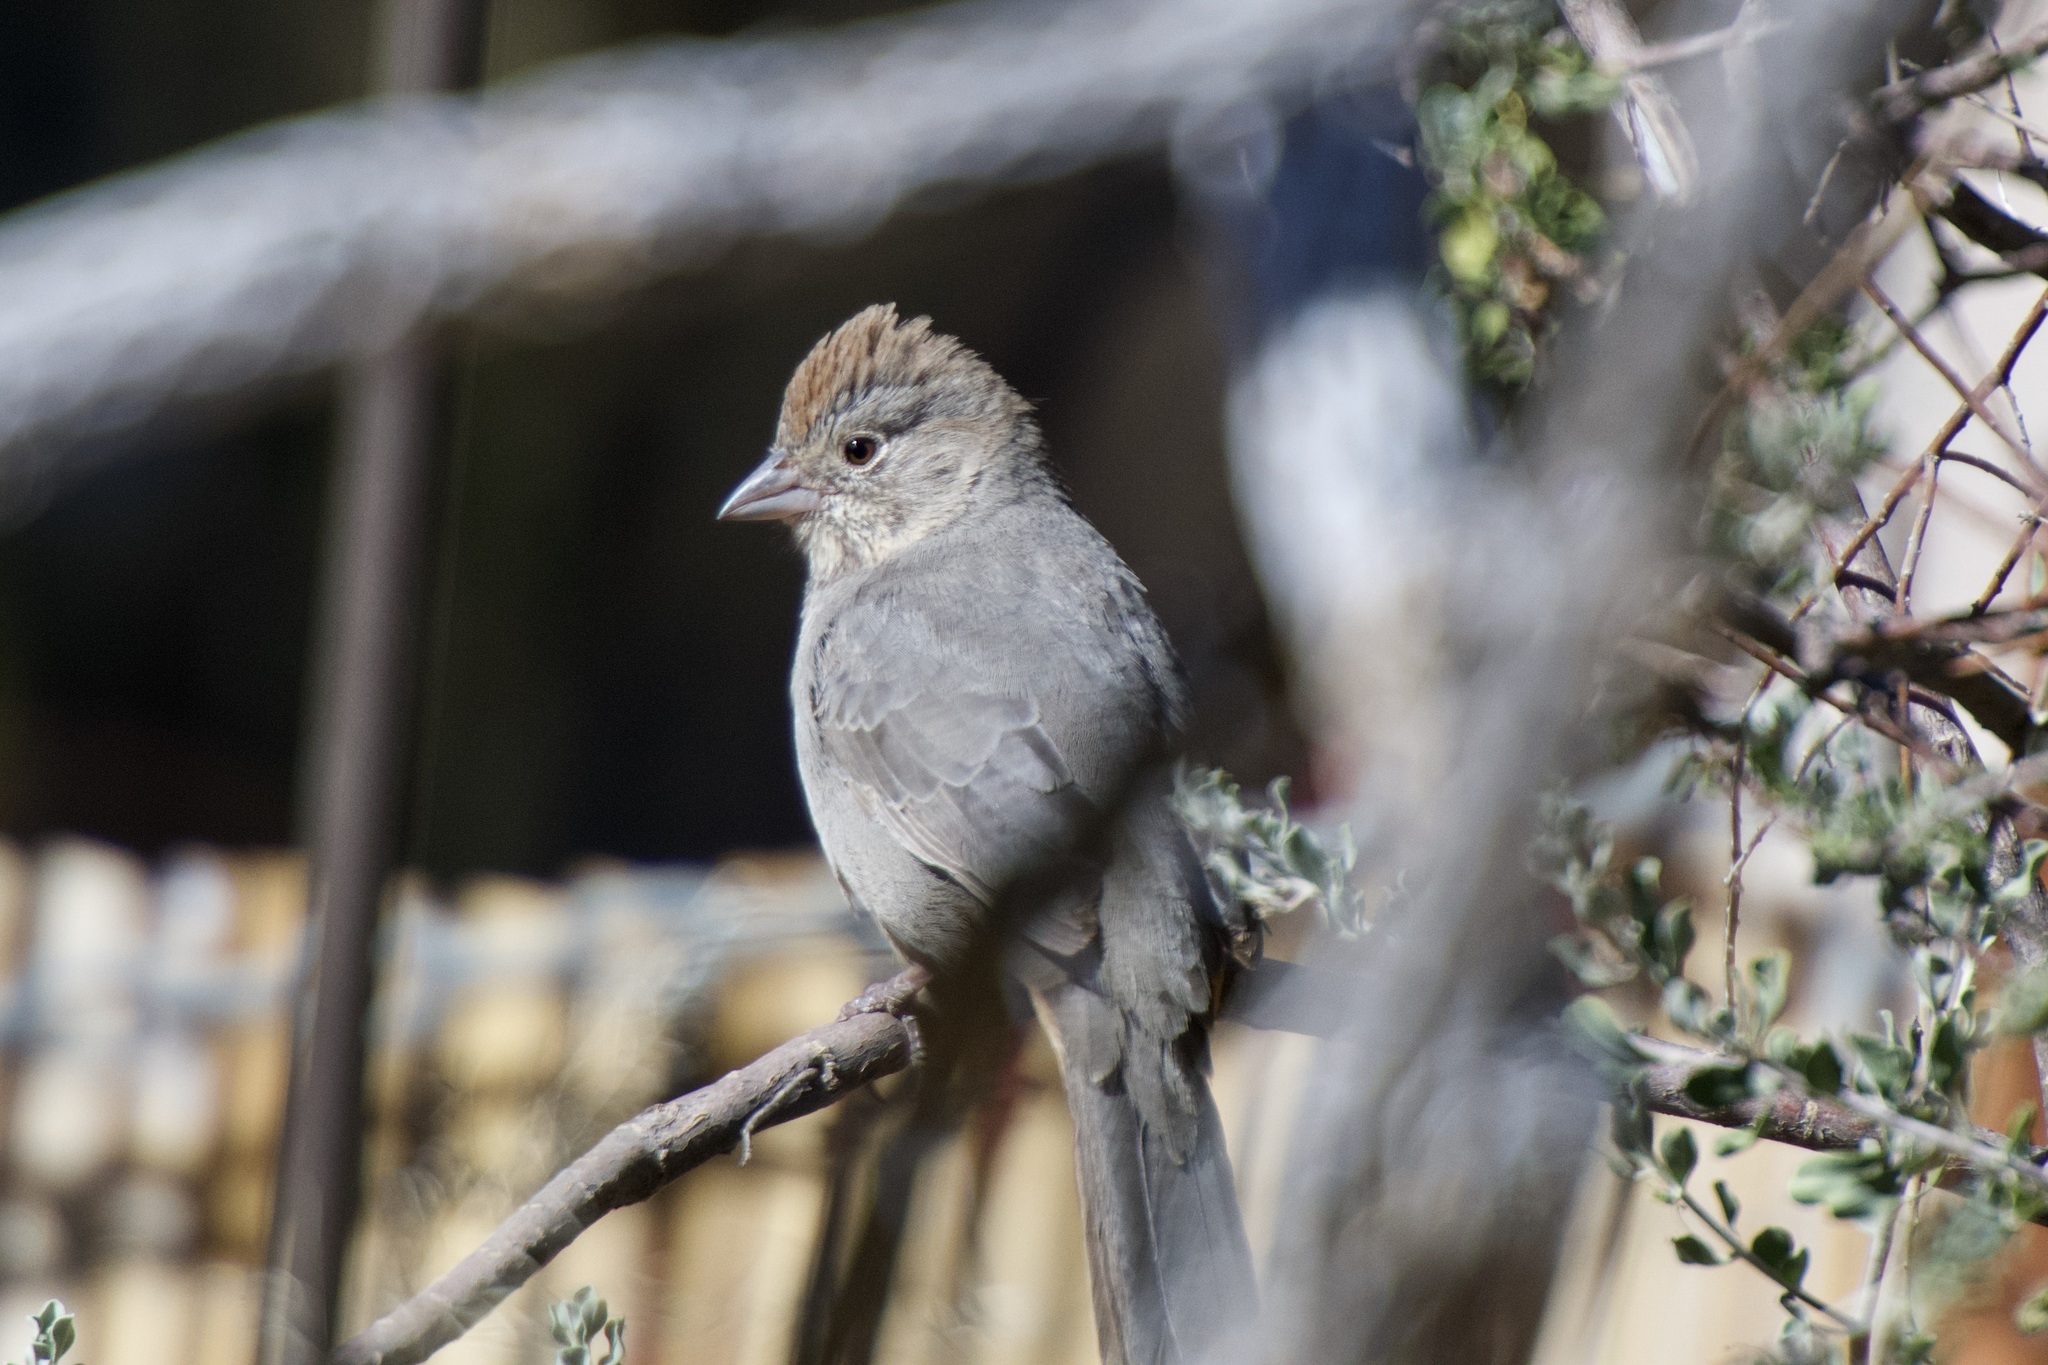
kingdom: Animalia
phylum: Chordata
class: Aves
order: Passeriformes
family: Passerellidae
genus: Melozone
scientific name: Melozone fusca
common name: Canyon towhee
